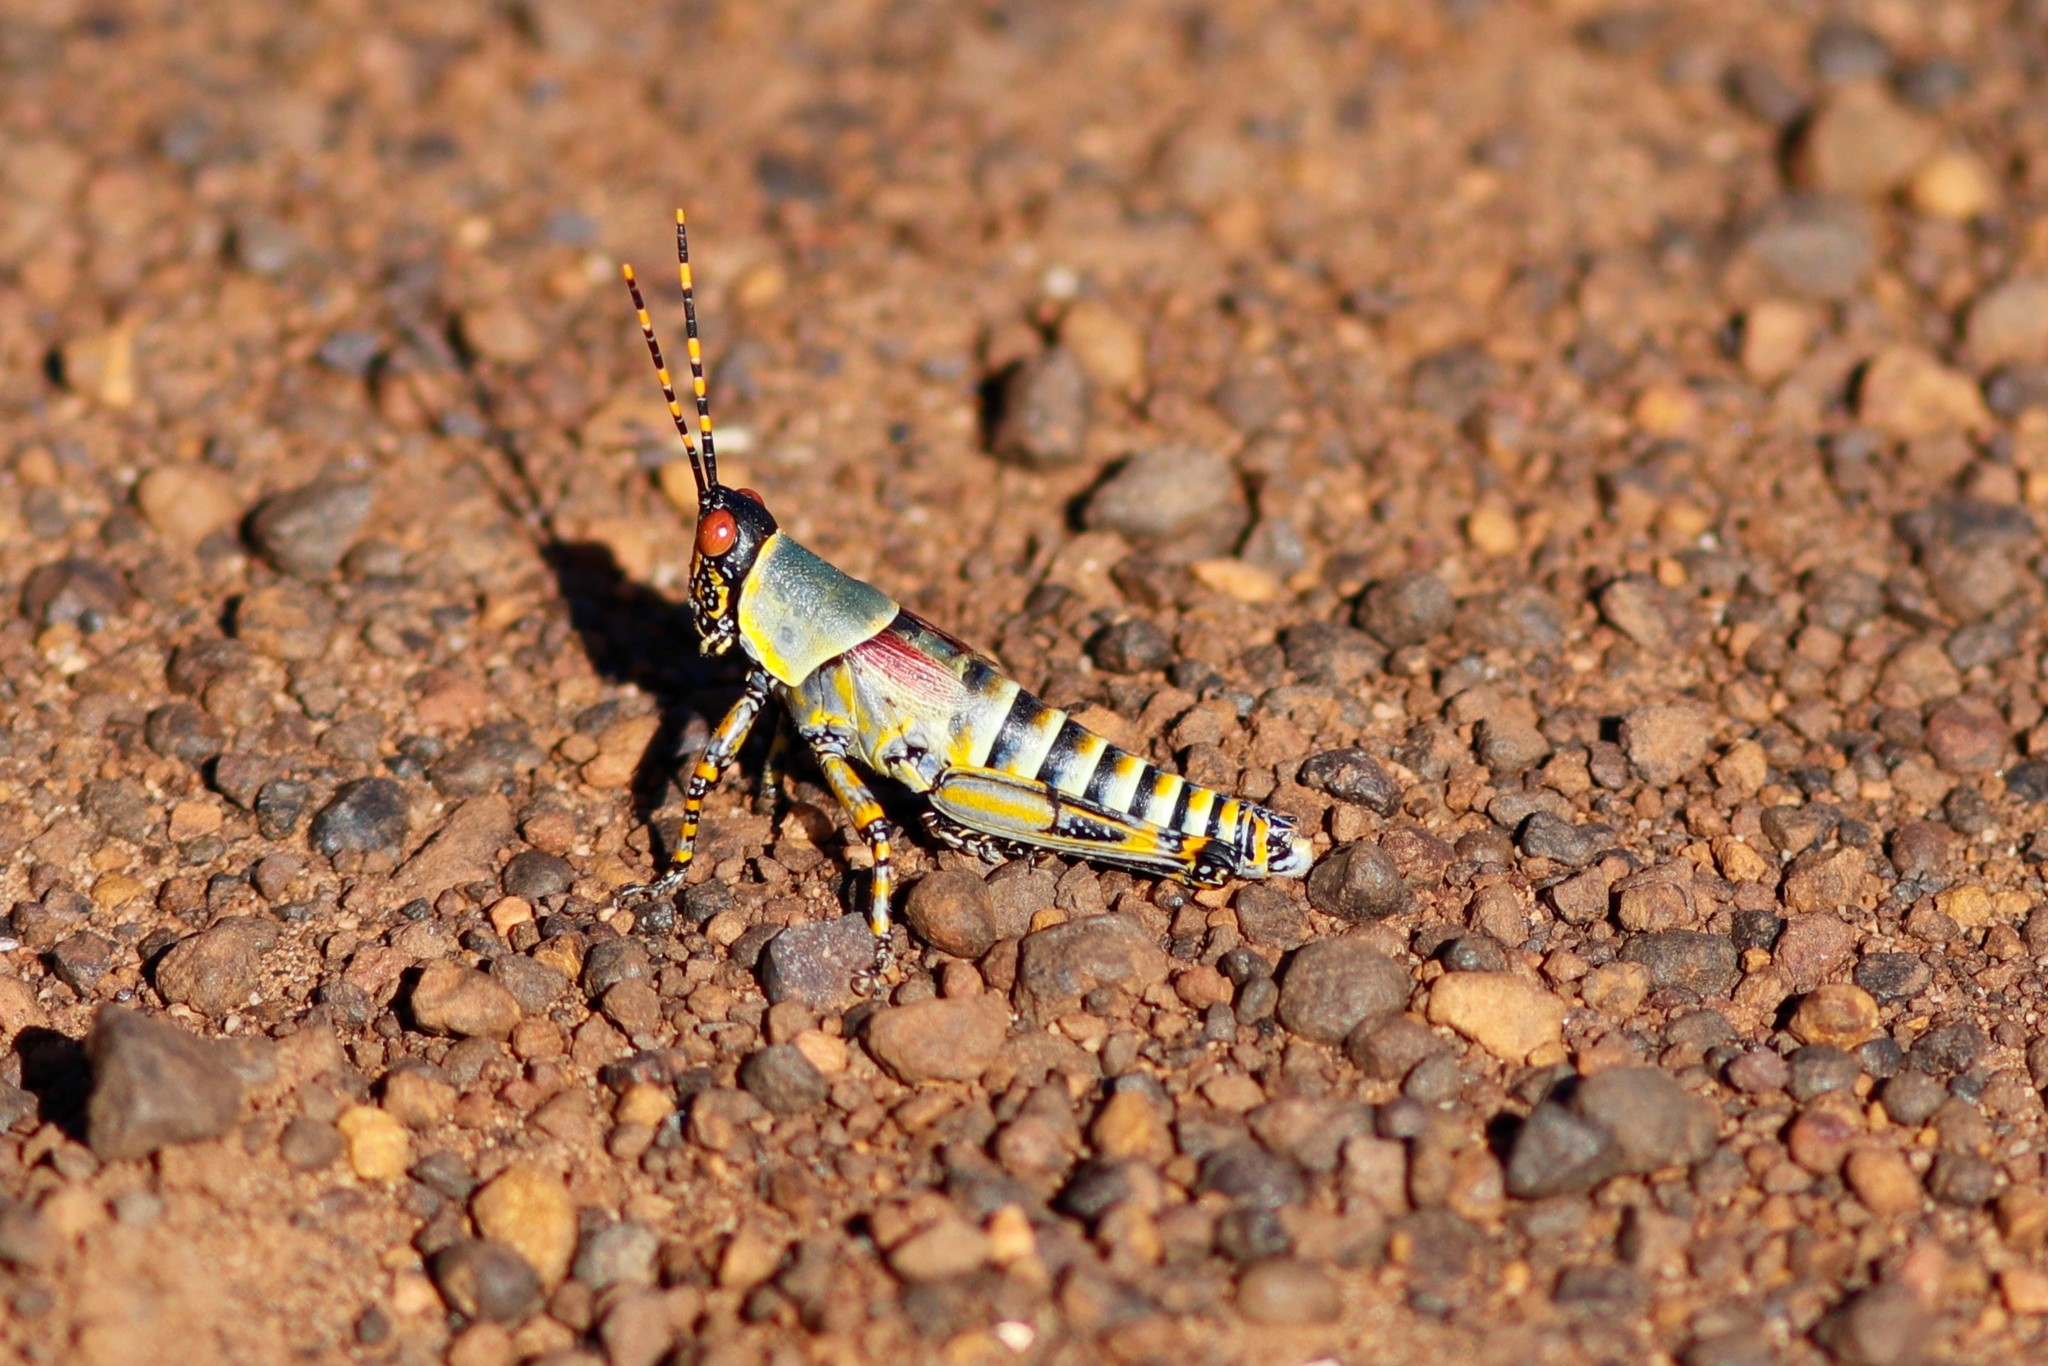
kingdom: Animalia
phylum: Arthropoda
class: Insecta
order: Orthoptera
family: Pyrgomorphidae
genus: Zonocerus
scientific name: Zonocerus elegans
